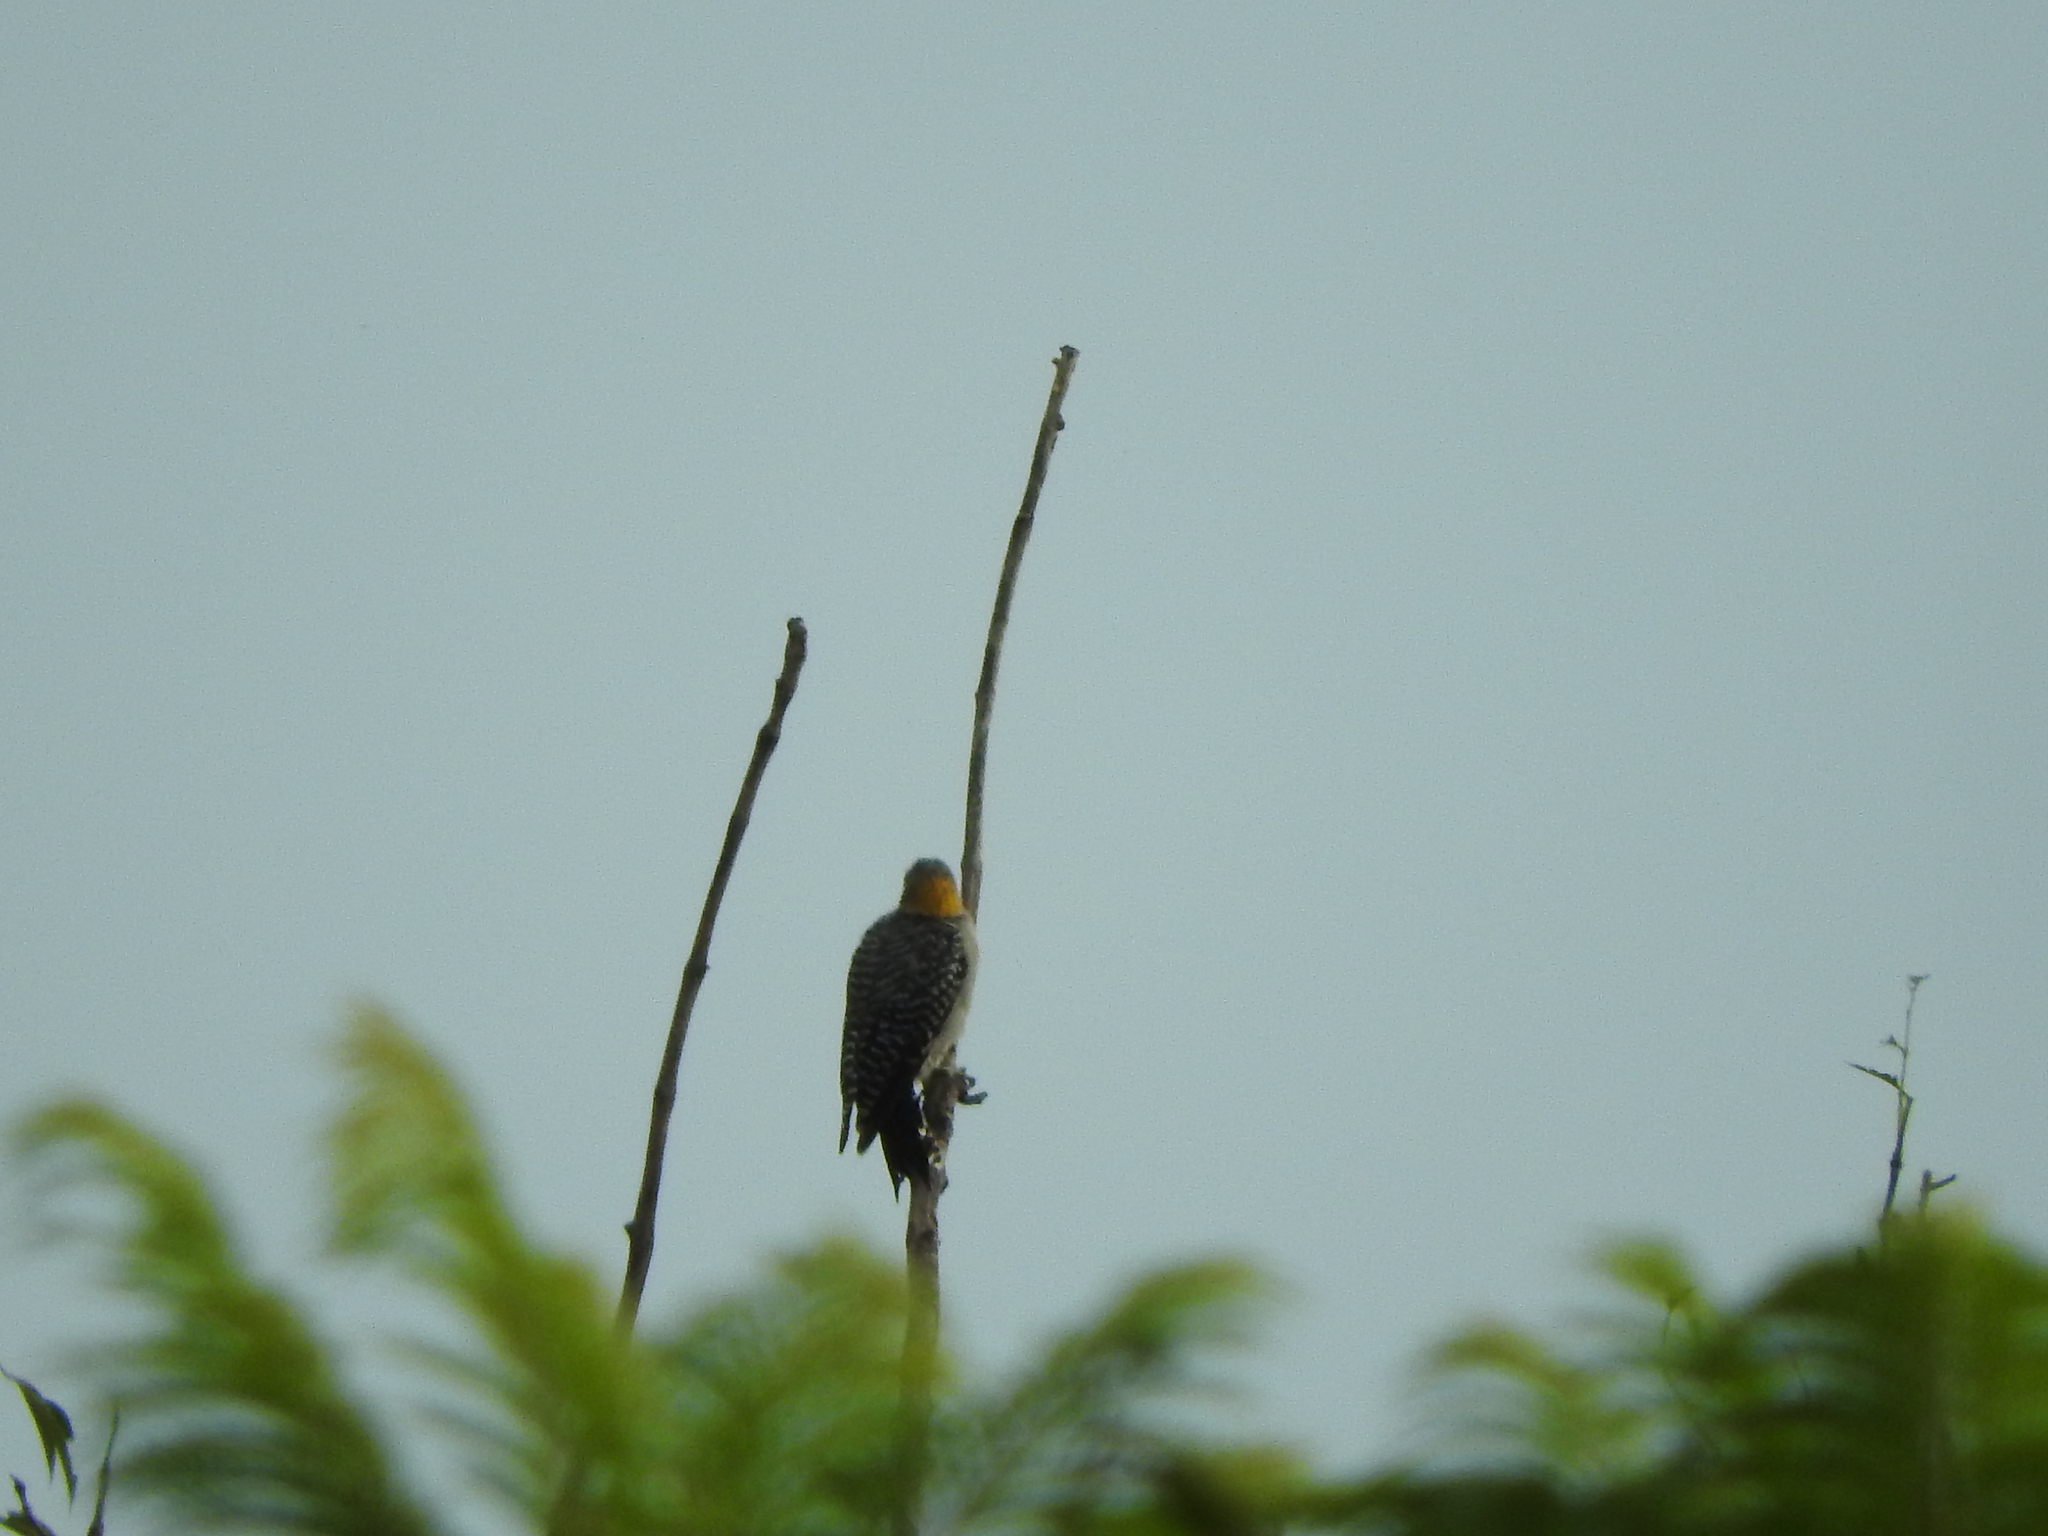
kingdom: Animalia
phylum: Chordata
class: Aves
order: Piciformes
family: Picidae
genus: Melanerpes
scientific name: Melanerpes aurifrons
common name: Golden-fronted woodpecker
